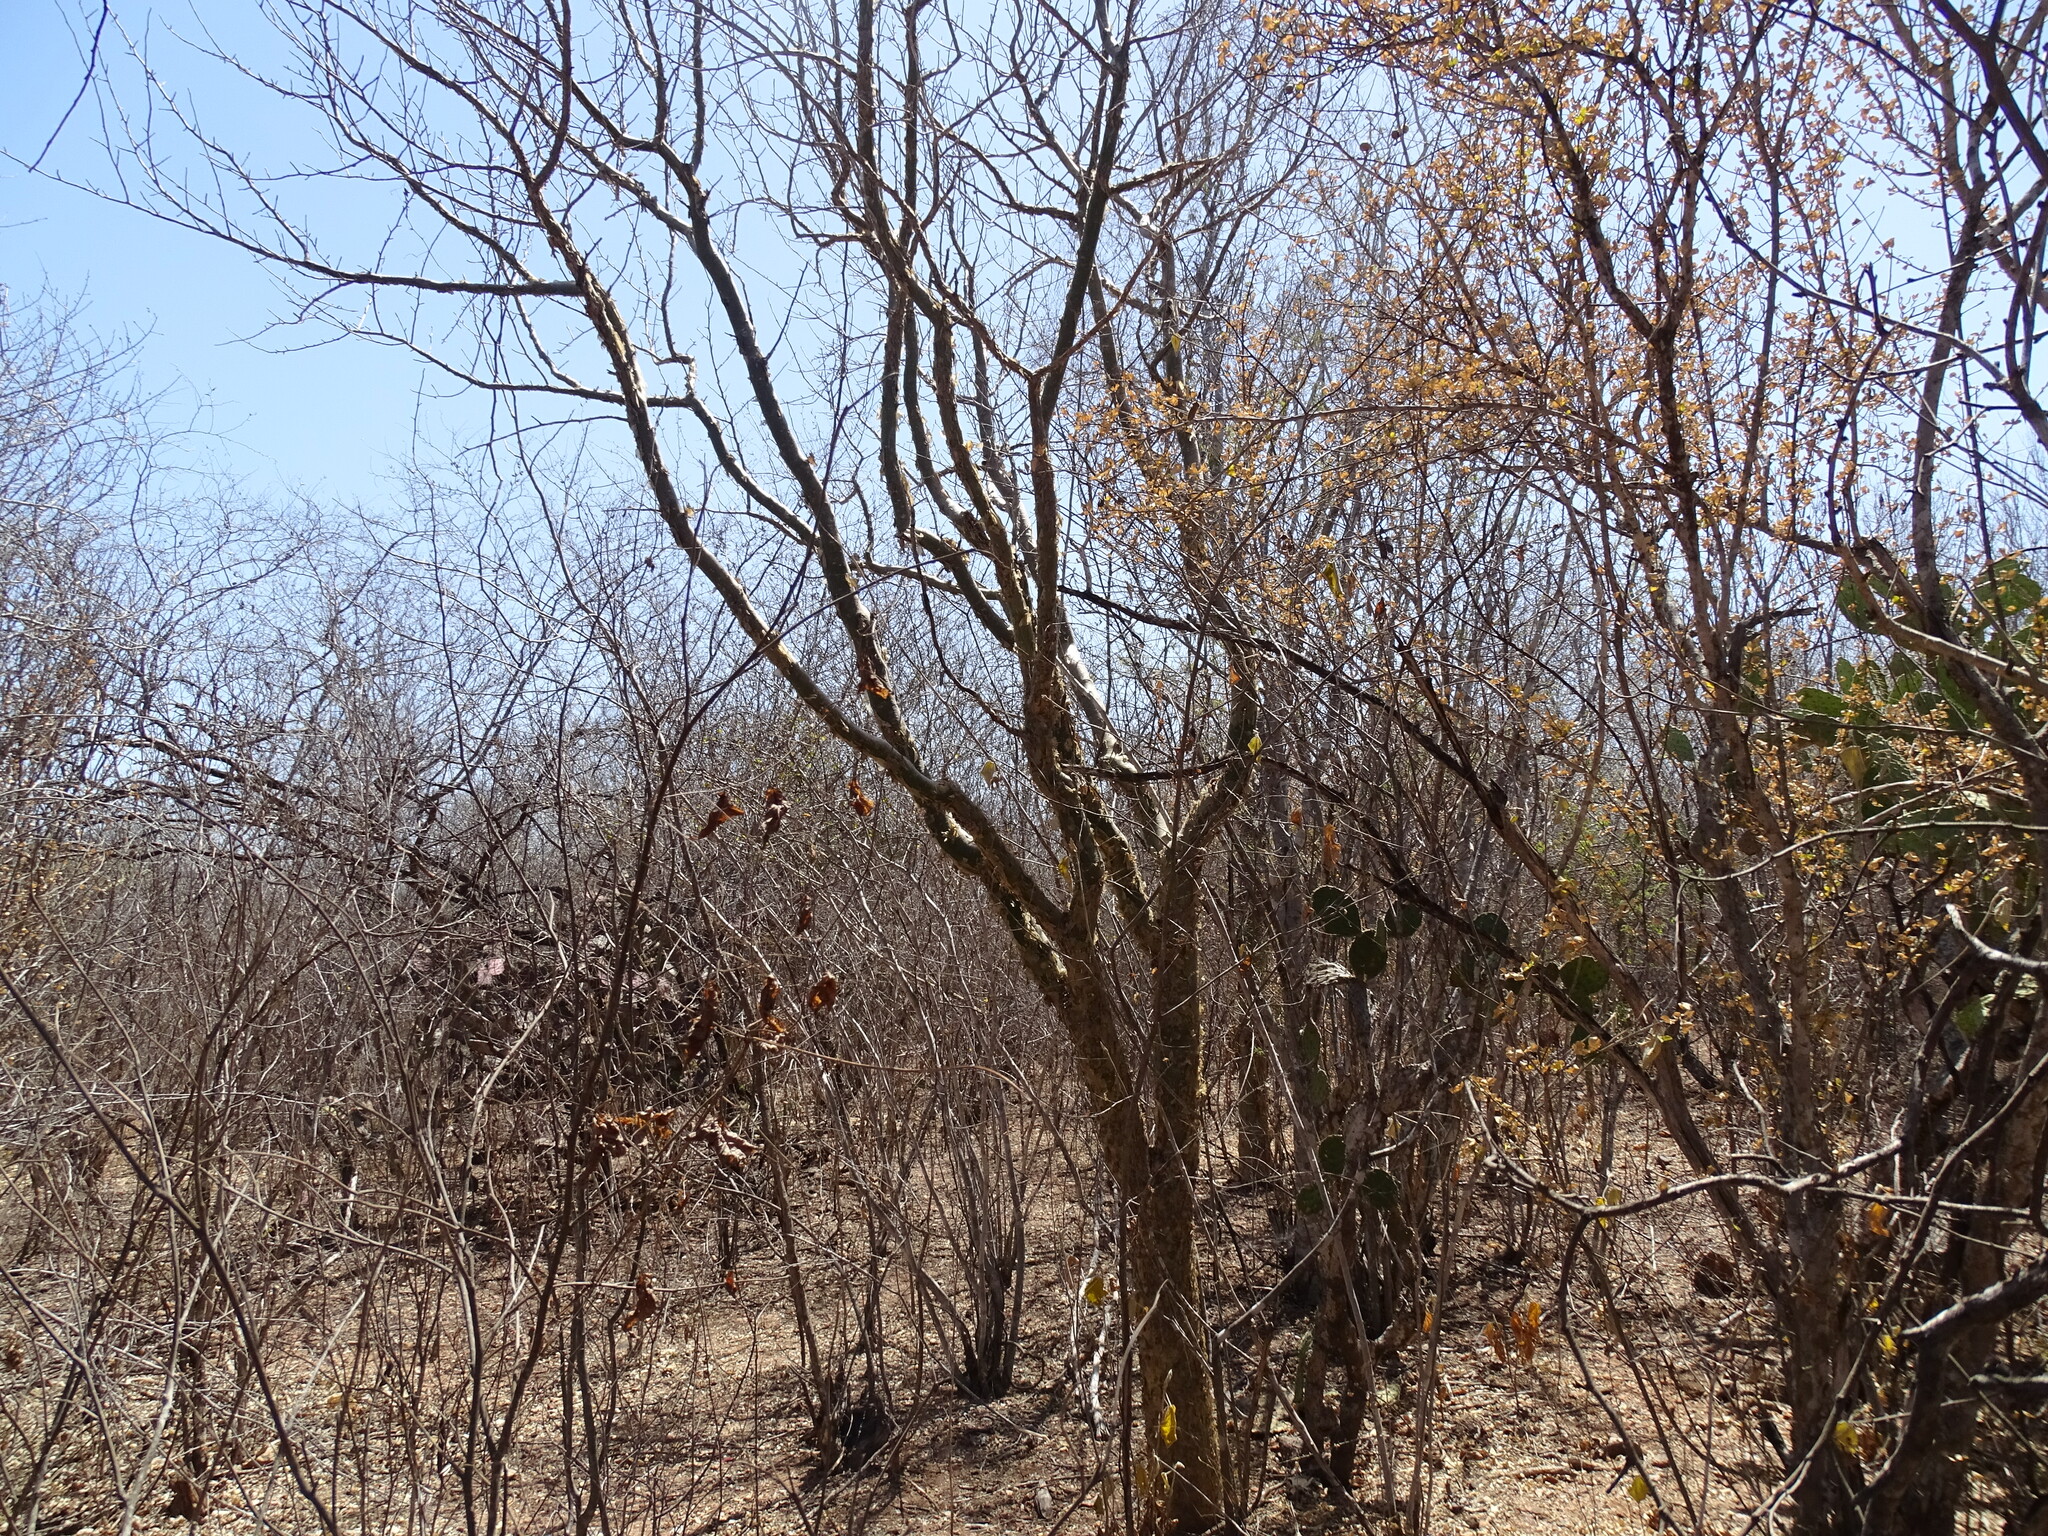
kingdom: Plantae
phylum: Tracheophyta
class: Magnoliopsida
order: Sapindales
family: Burseraceae
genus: Bursera
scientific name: Bursera fagaroides
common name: Elephant tree
